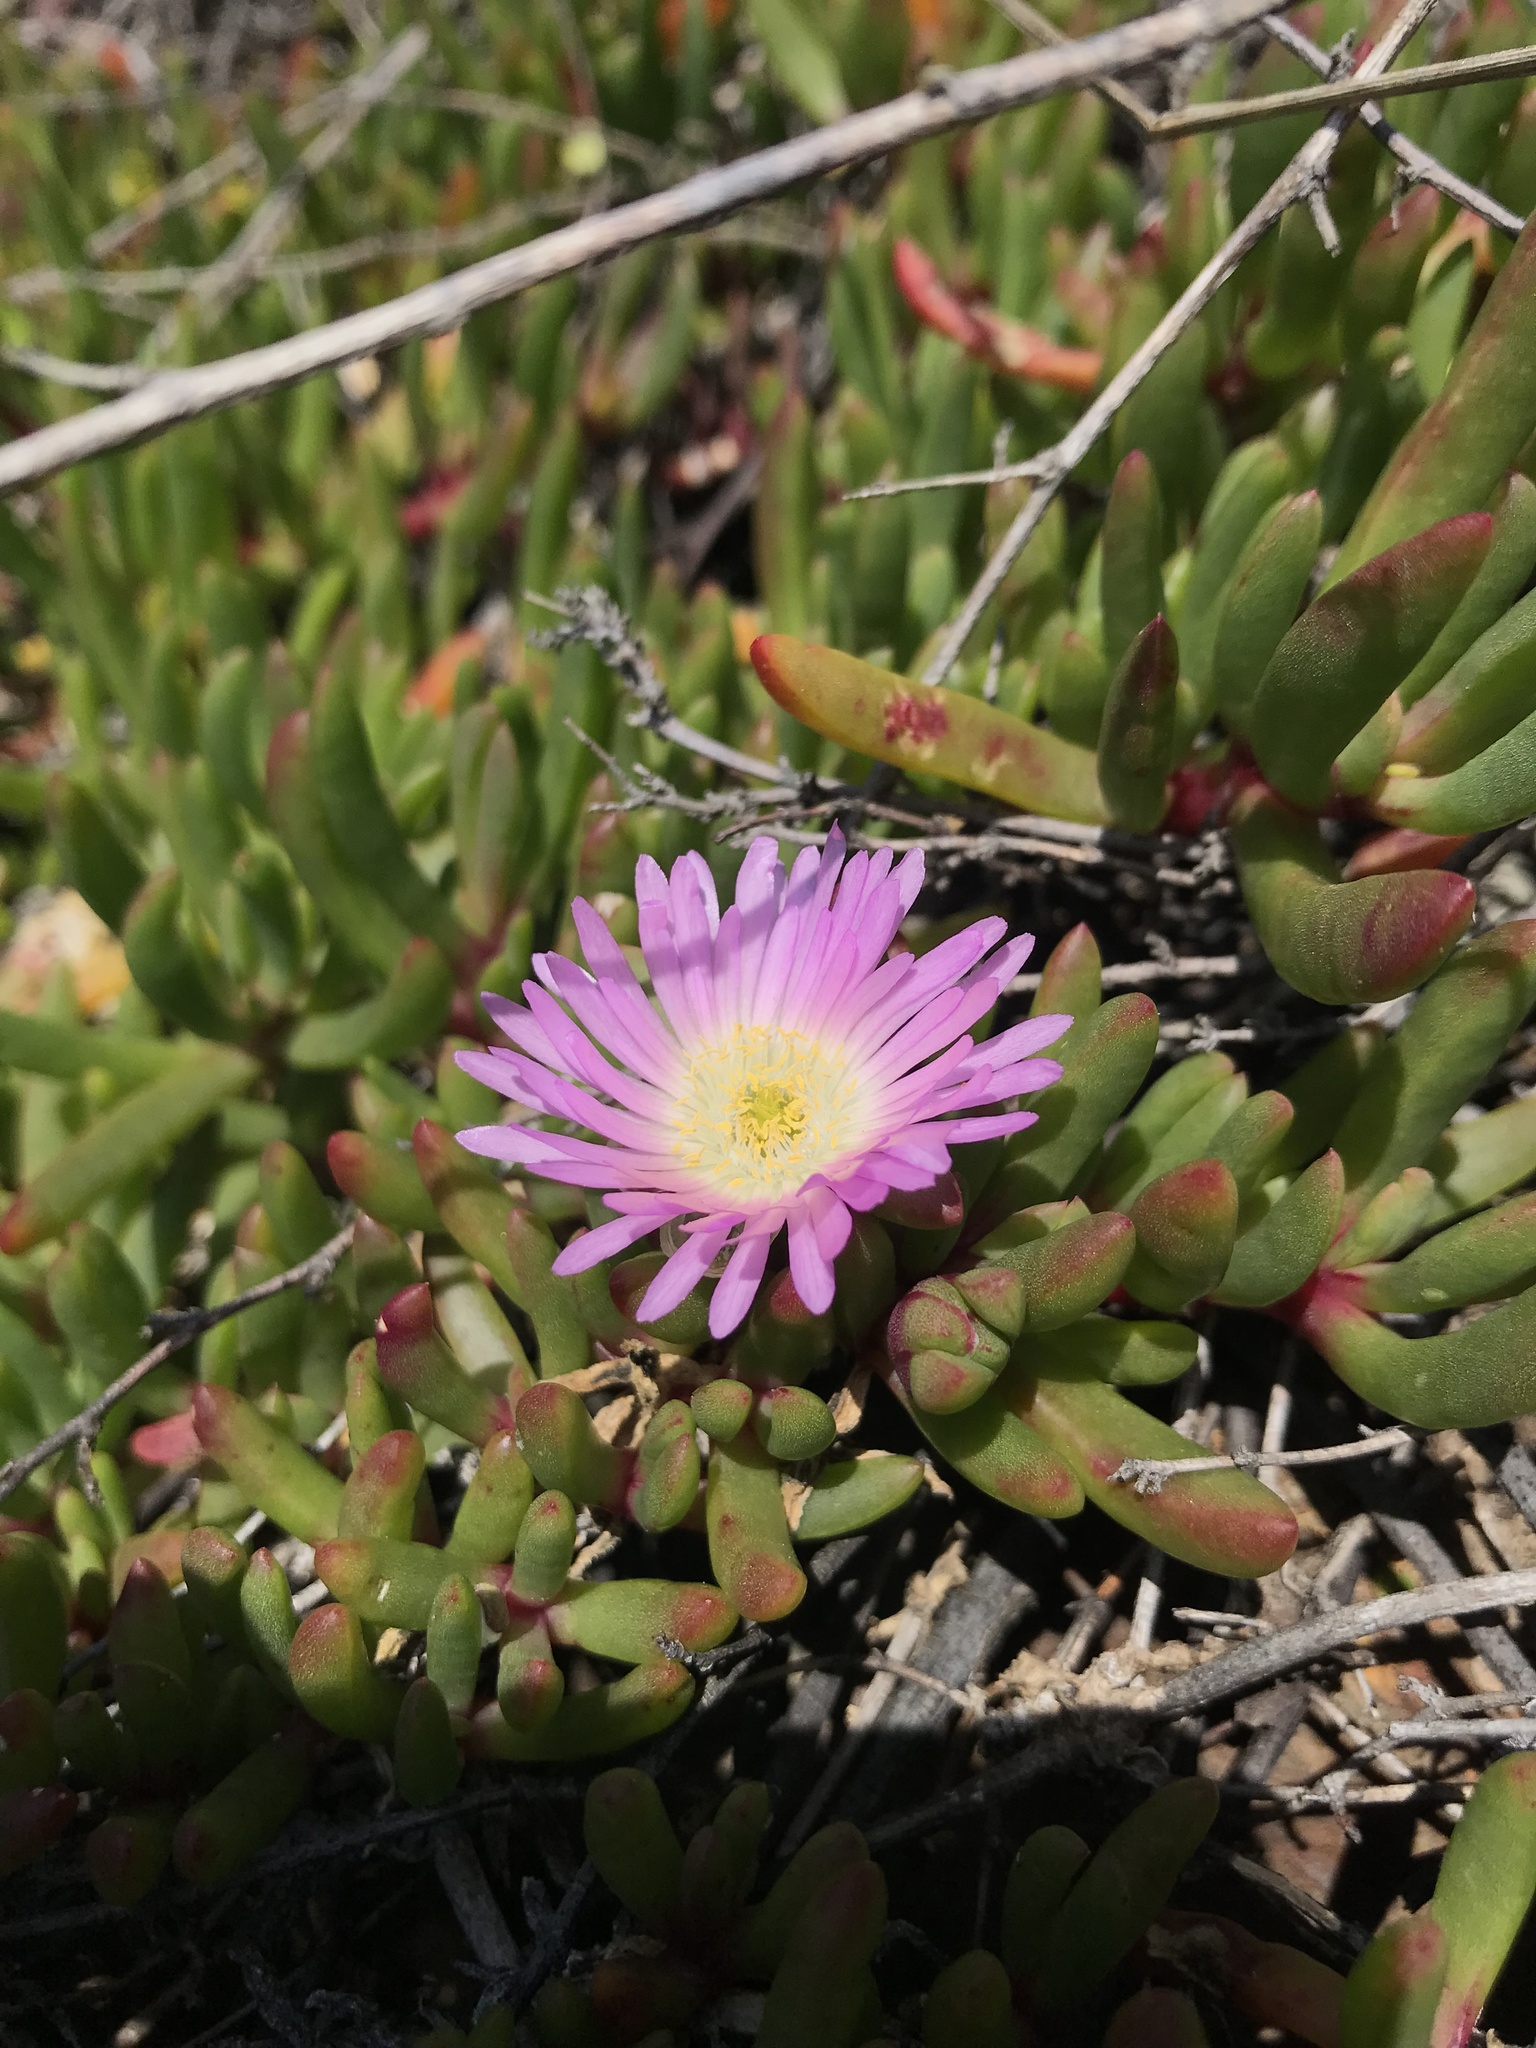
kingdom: Plantae
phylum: Tracheophyta
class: Magnoliopsida
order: Caryophyllales
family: Aizoaceae
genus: Disphyma
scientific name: Disphyma australe
